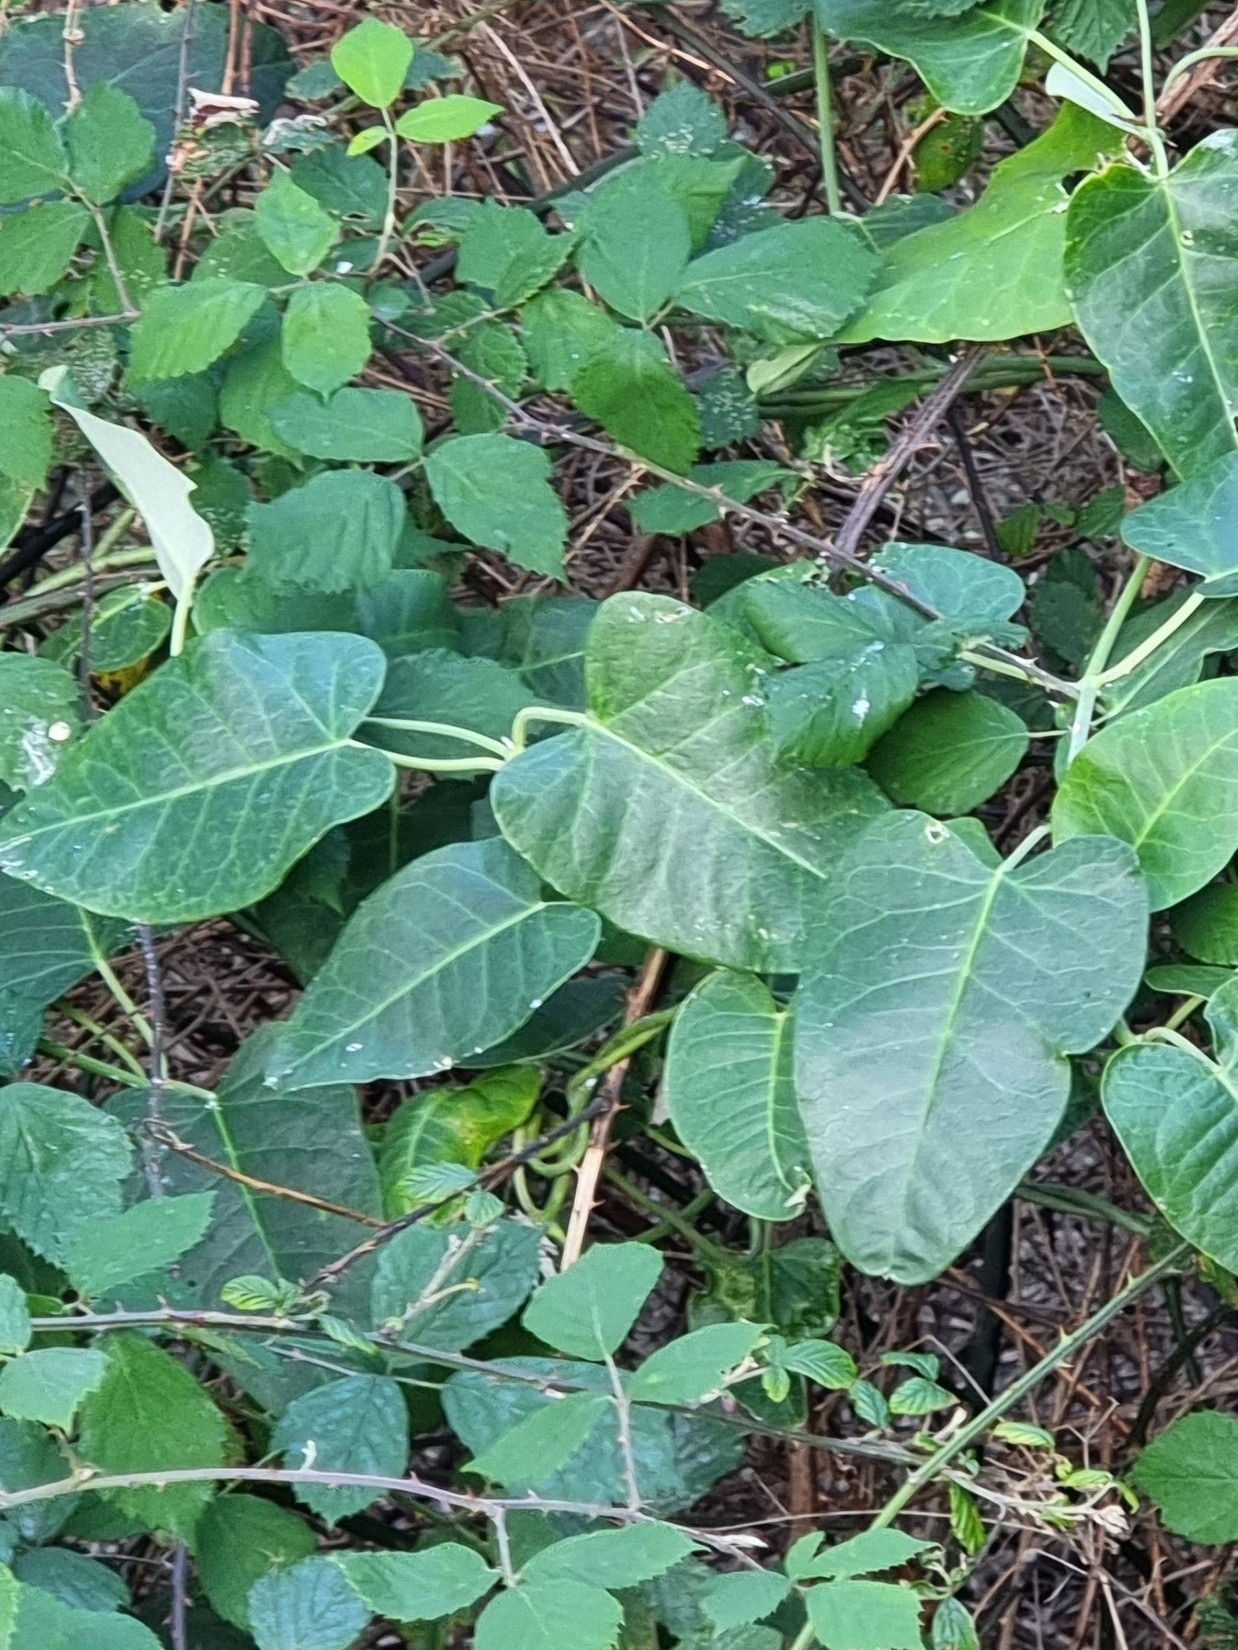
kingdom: Plantae
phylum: Tracheophyta
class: Magnoliopsida
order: Gentianales
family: Apocynaceae
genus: Araujia
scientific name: Araujia sericifera
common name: White bladderflower
